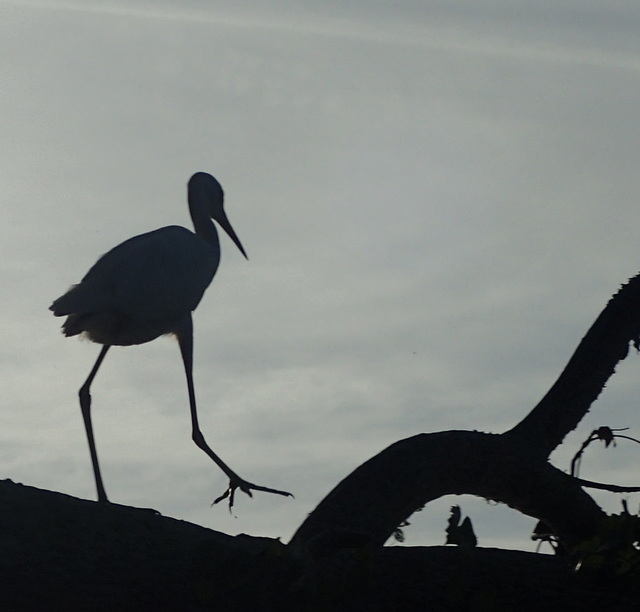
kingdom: Animalia
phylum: Chordata
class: Aves
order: Pelecaniformes
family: Ardeidae
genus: Egretta
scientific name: Egretta caerulea
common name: Little blue heron
